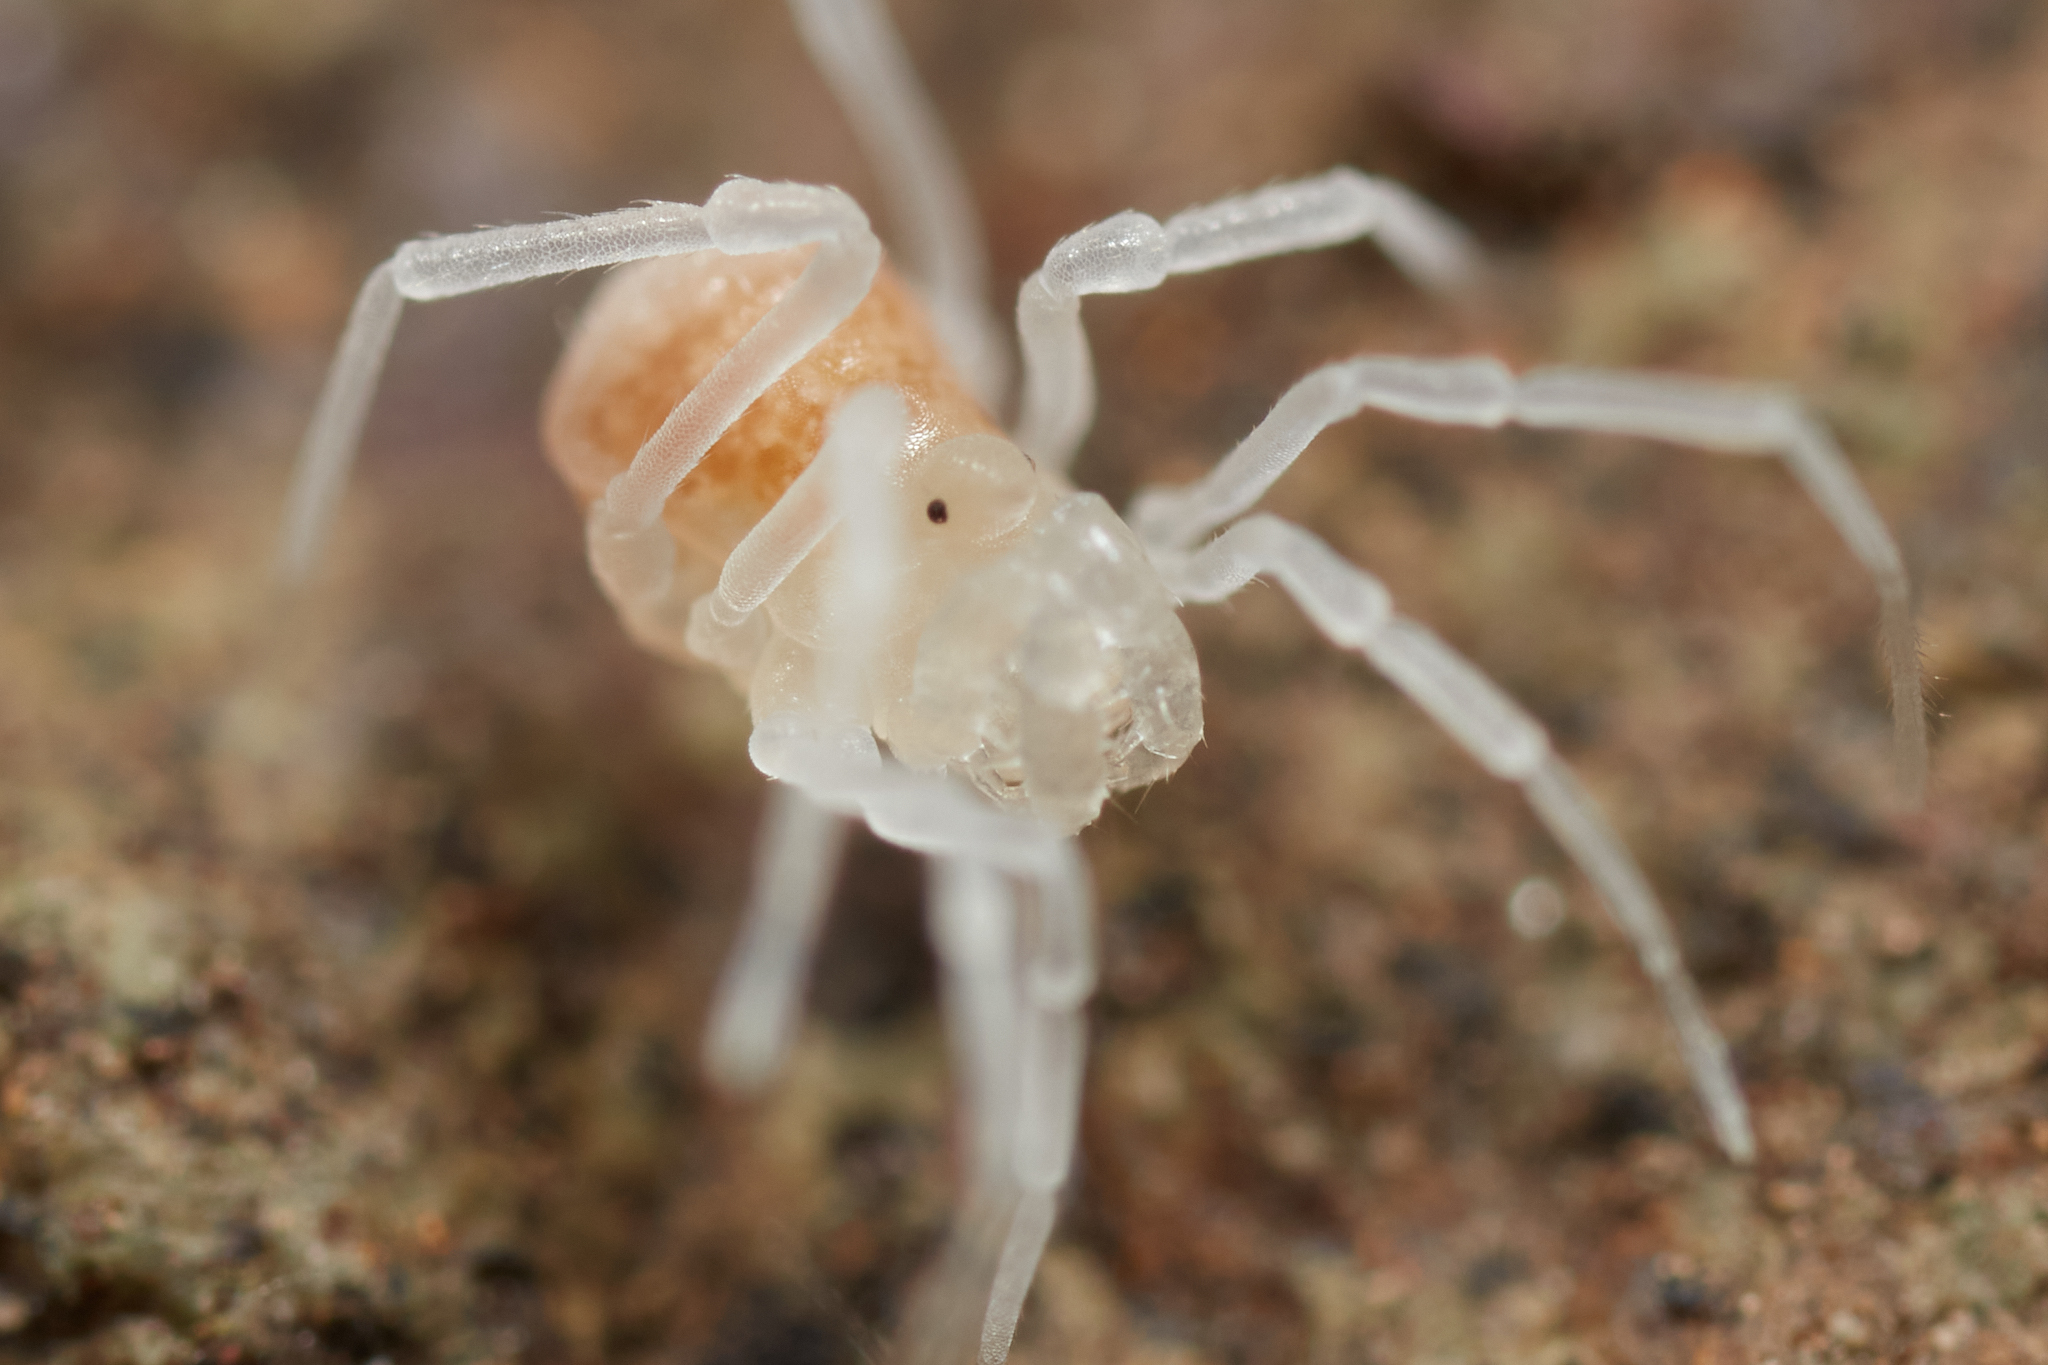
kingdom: Animalia
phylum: Arthropoda
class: Arachnida
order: Opiliones
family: Phalangodidae
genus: Sitalcina
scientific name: Sitalcina californica
